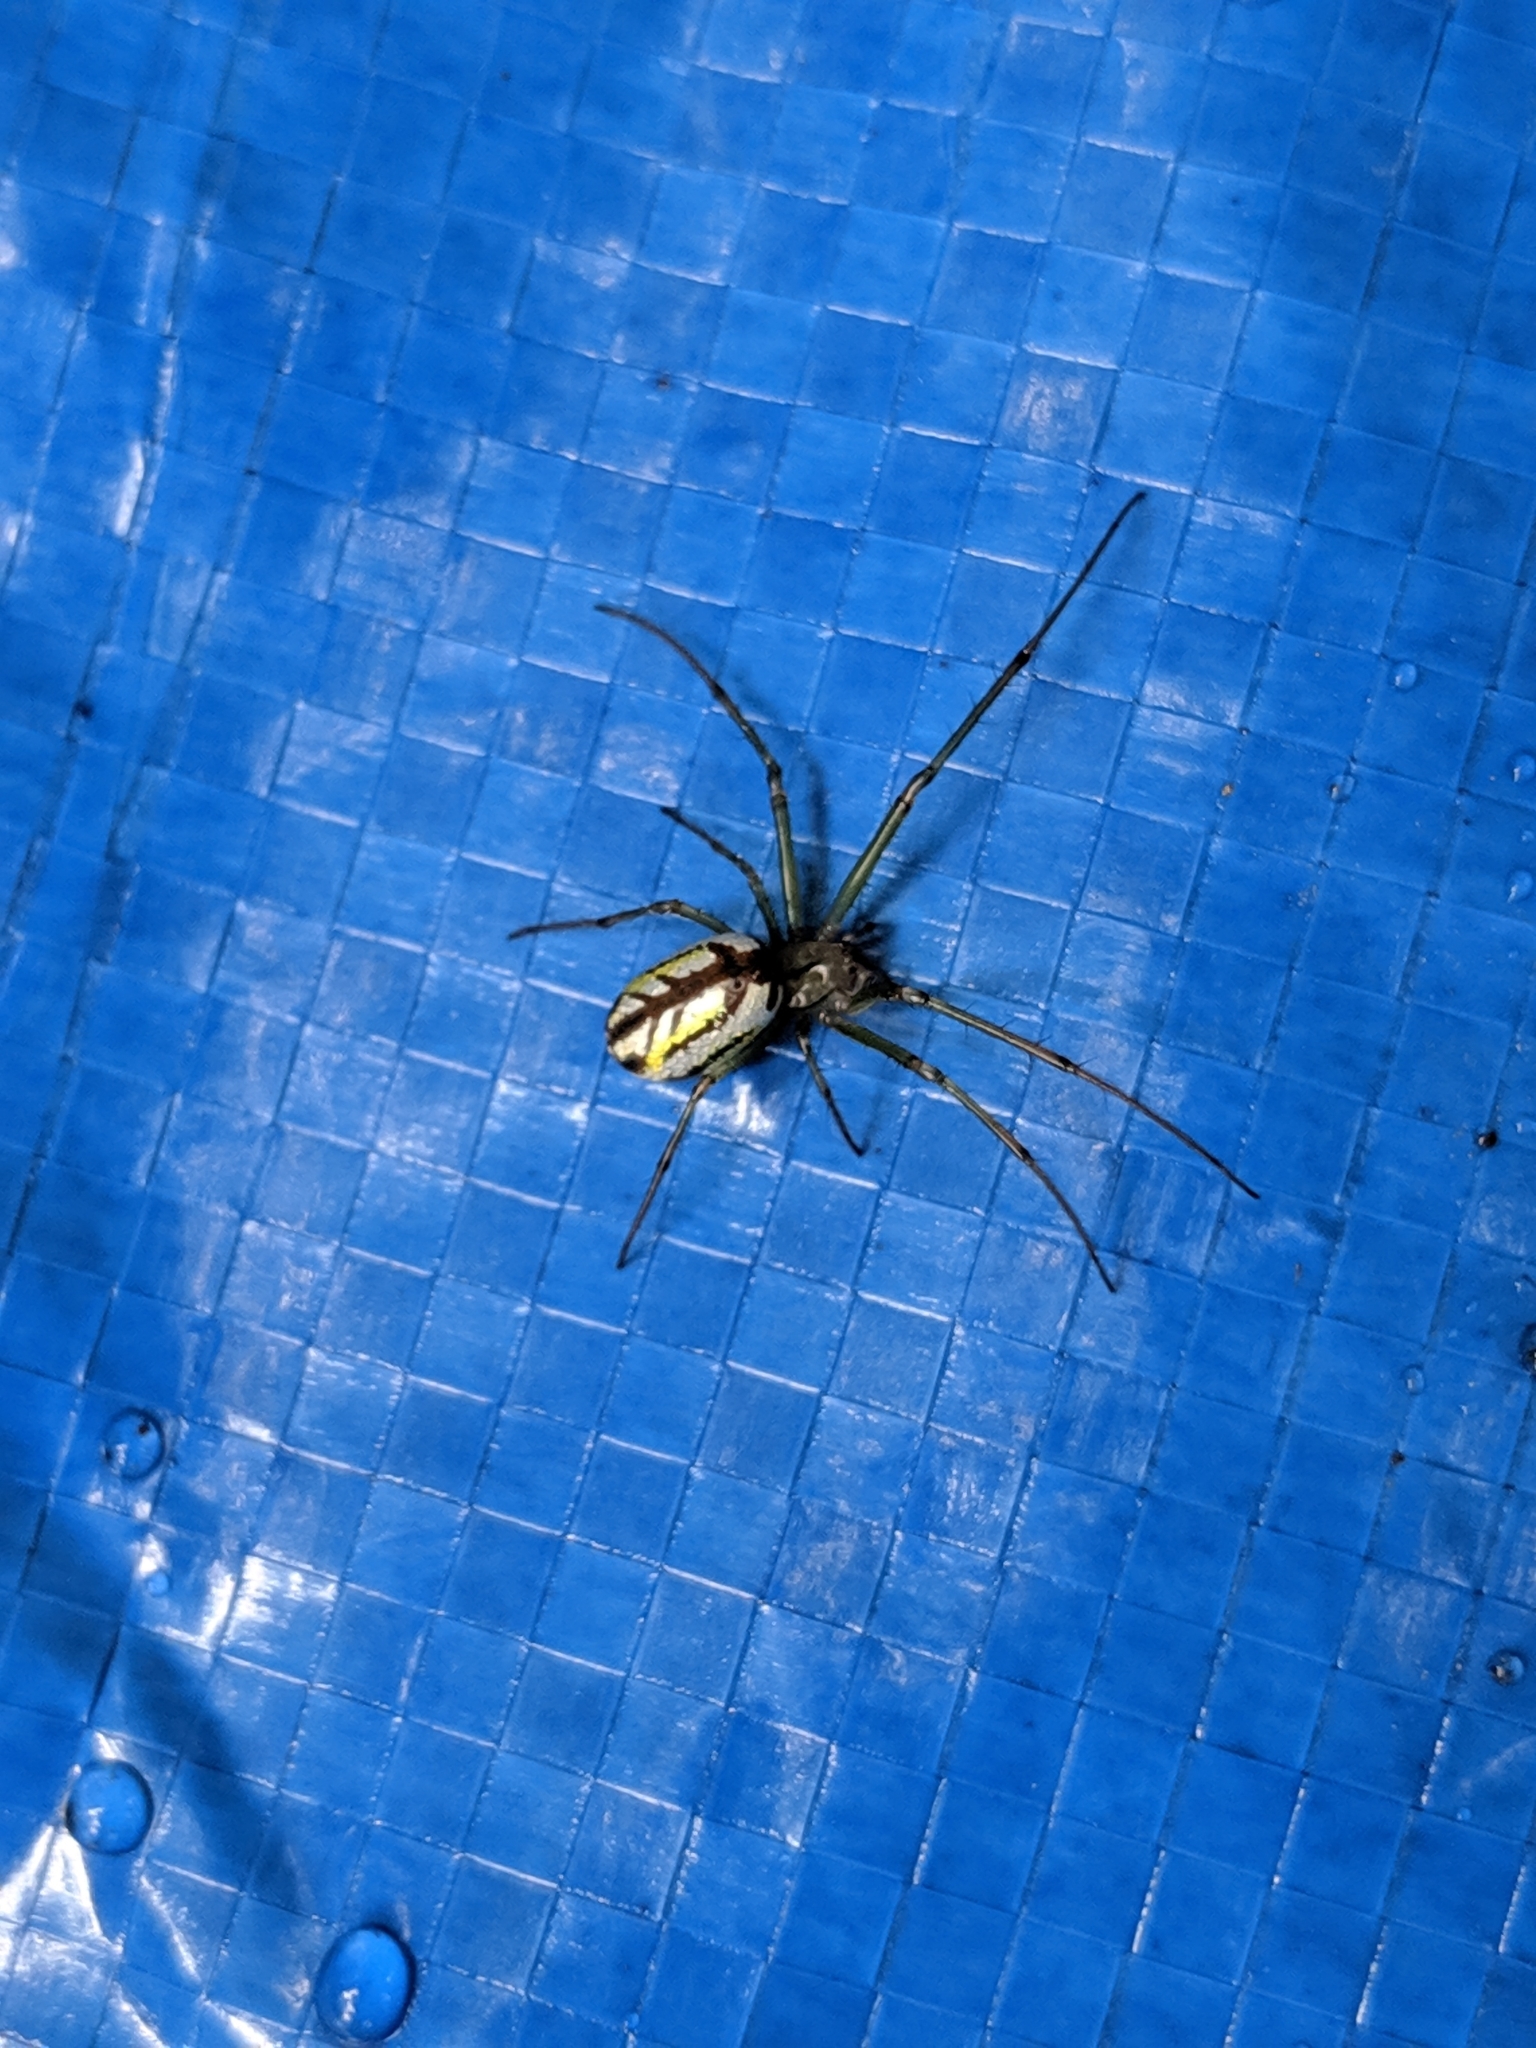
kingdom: Animalia
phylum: Arthropoda
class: Arachnida
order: Araneae
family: Tetragnathidae
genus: Leucauge
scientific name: Leucauge venusta
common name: Longjawed orb weavers
